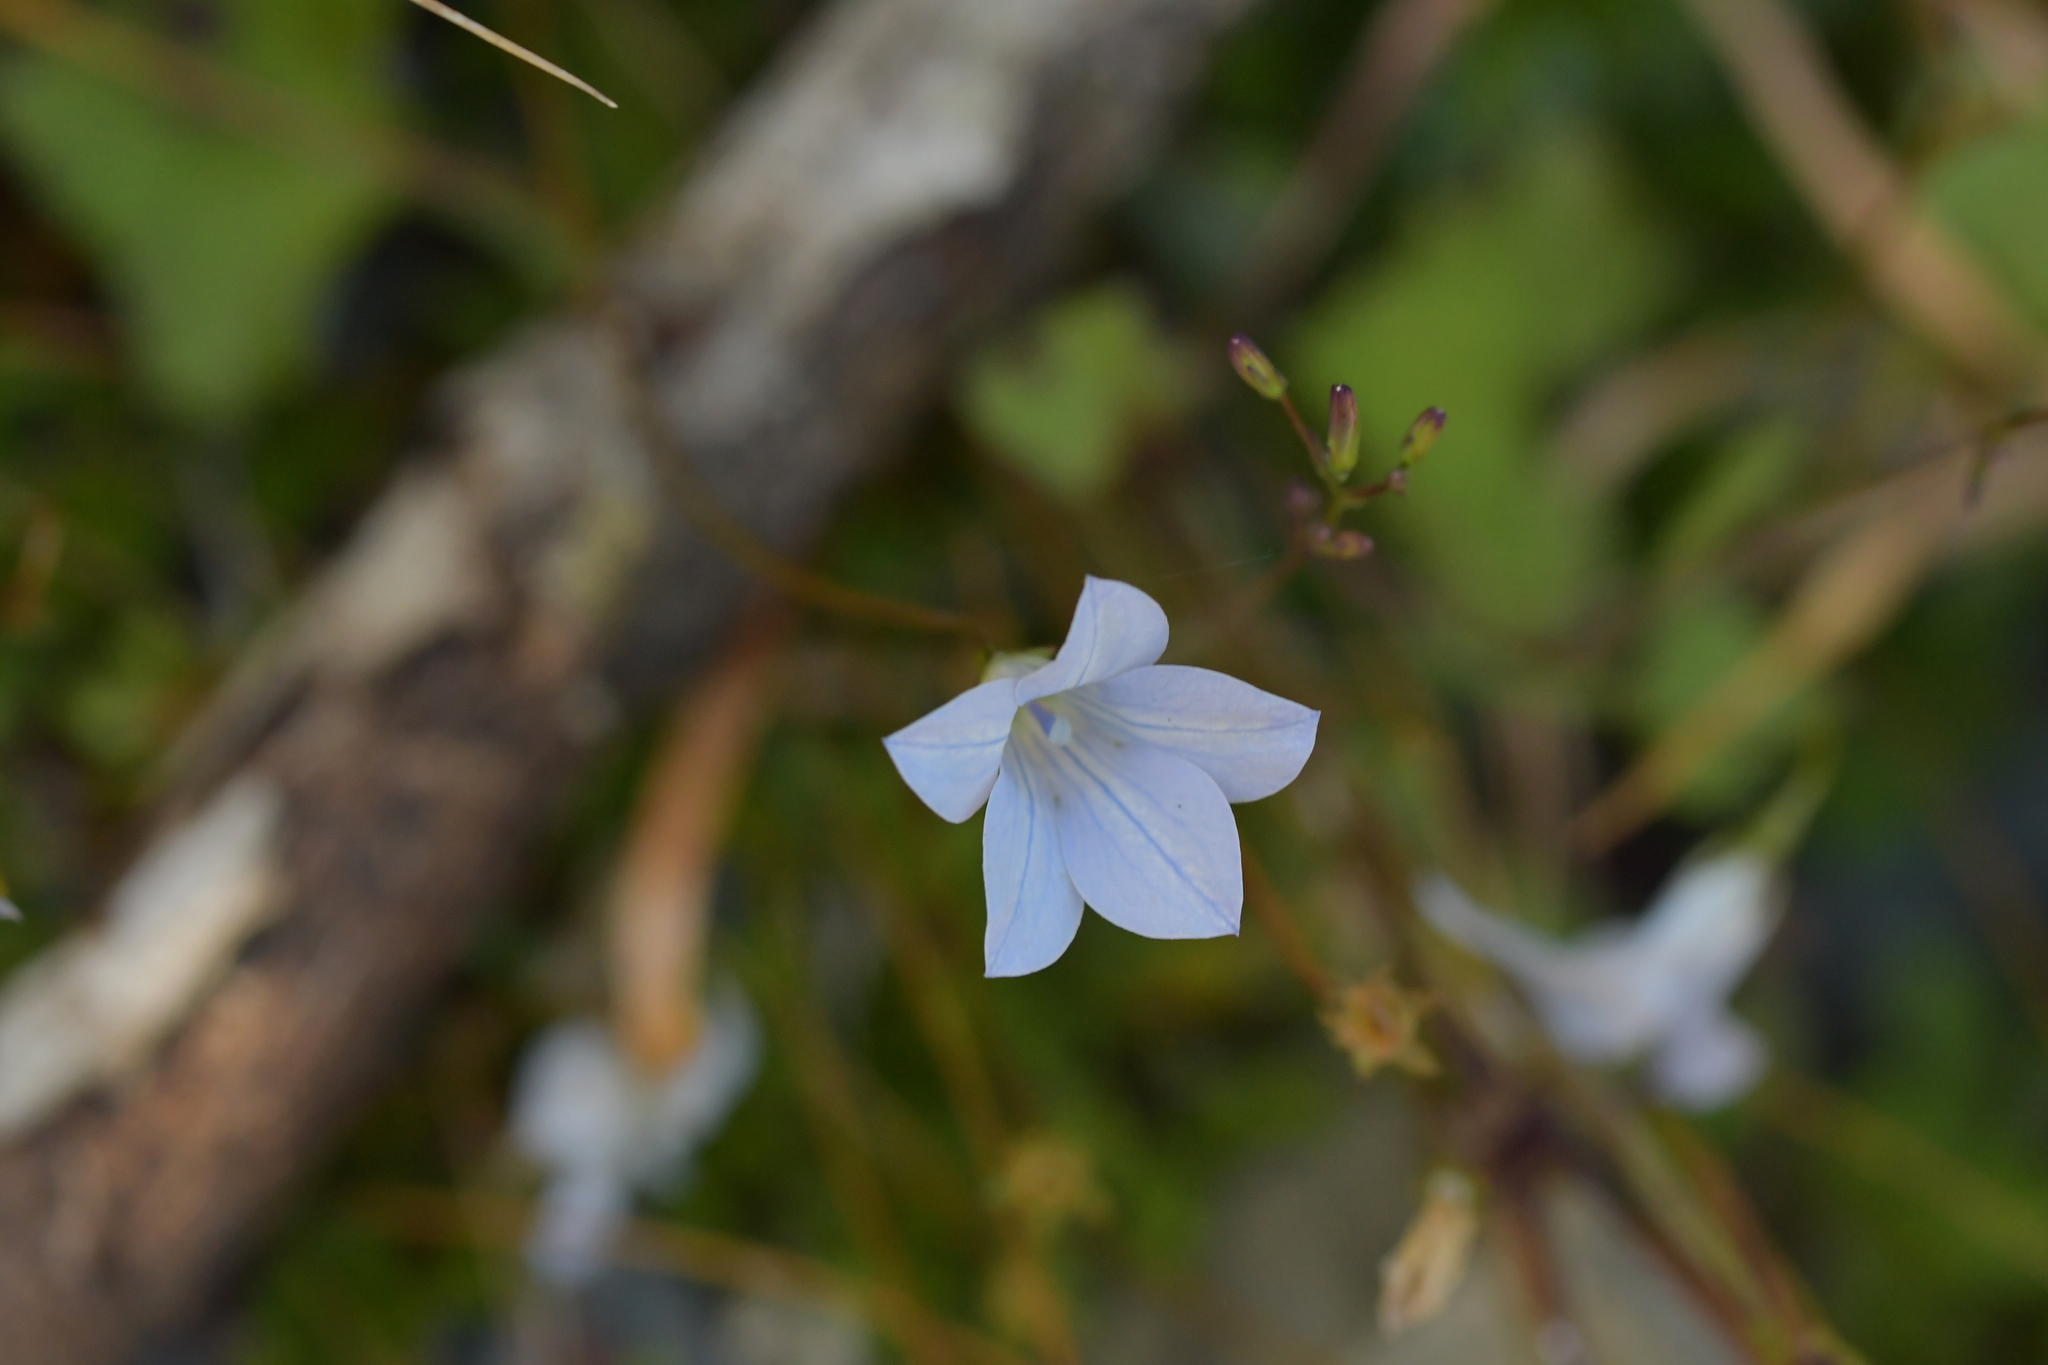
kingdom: Plantae
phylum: Tracheophyta
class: Magnoliopsida
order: Asterales
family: Campanulaceae
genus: Wahlenbergia
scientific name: Wahlenbergia albomarginata
